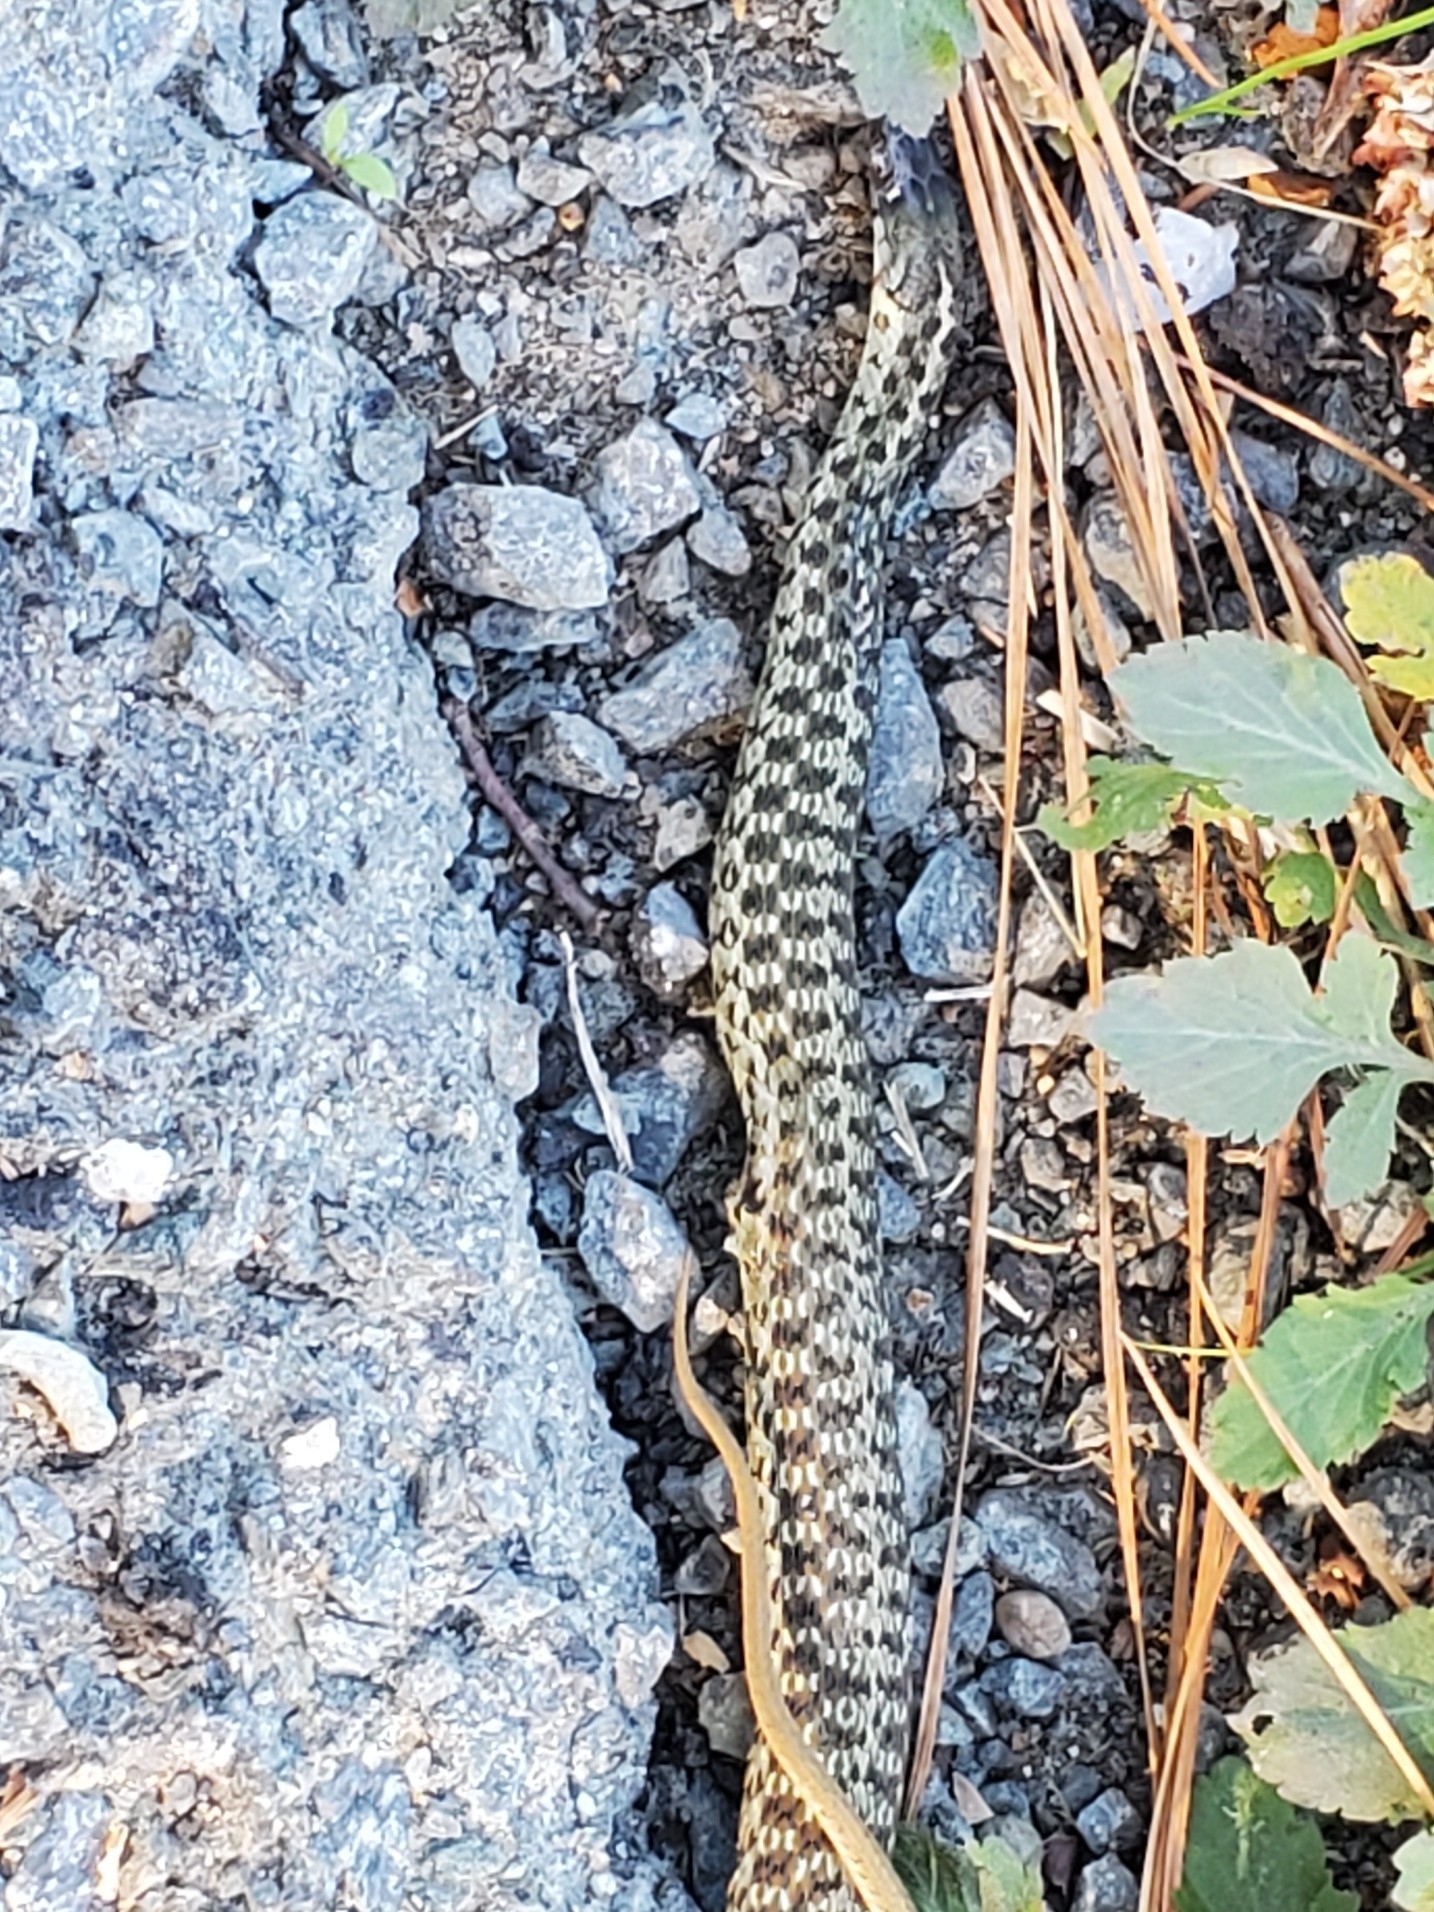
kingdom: Animalia
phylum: Chordata
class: Squamata
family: Colubridae
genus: Thamnophis
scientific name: Thamnophis sirtalis
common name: Common garter snake
